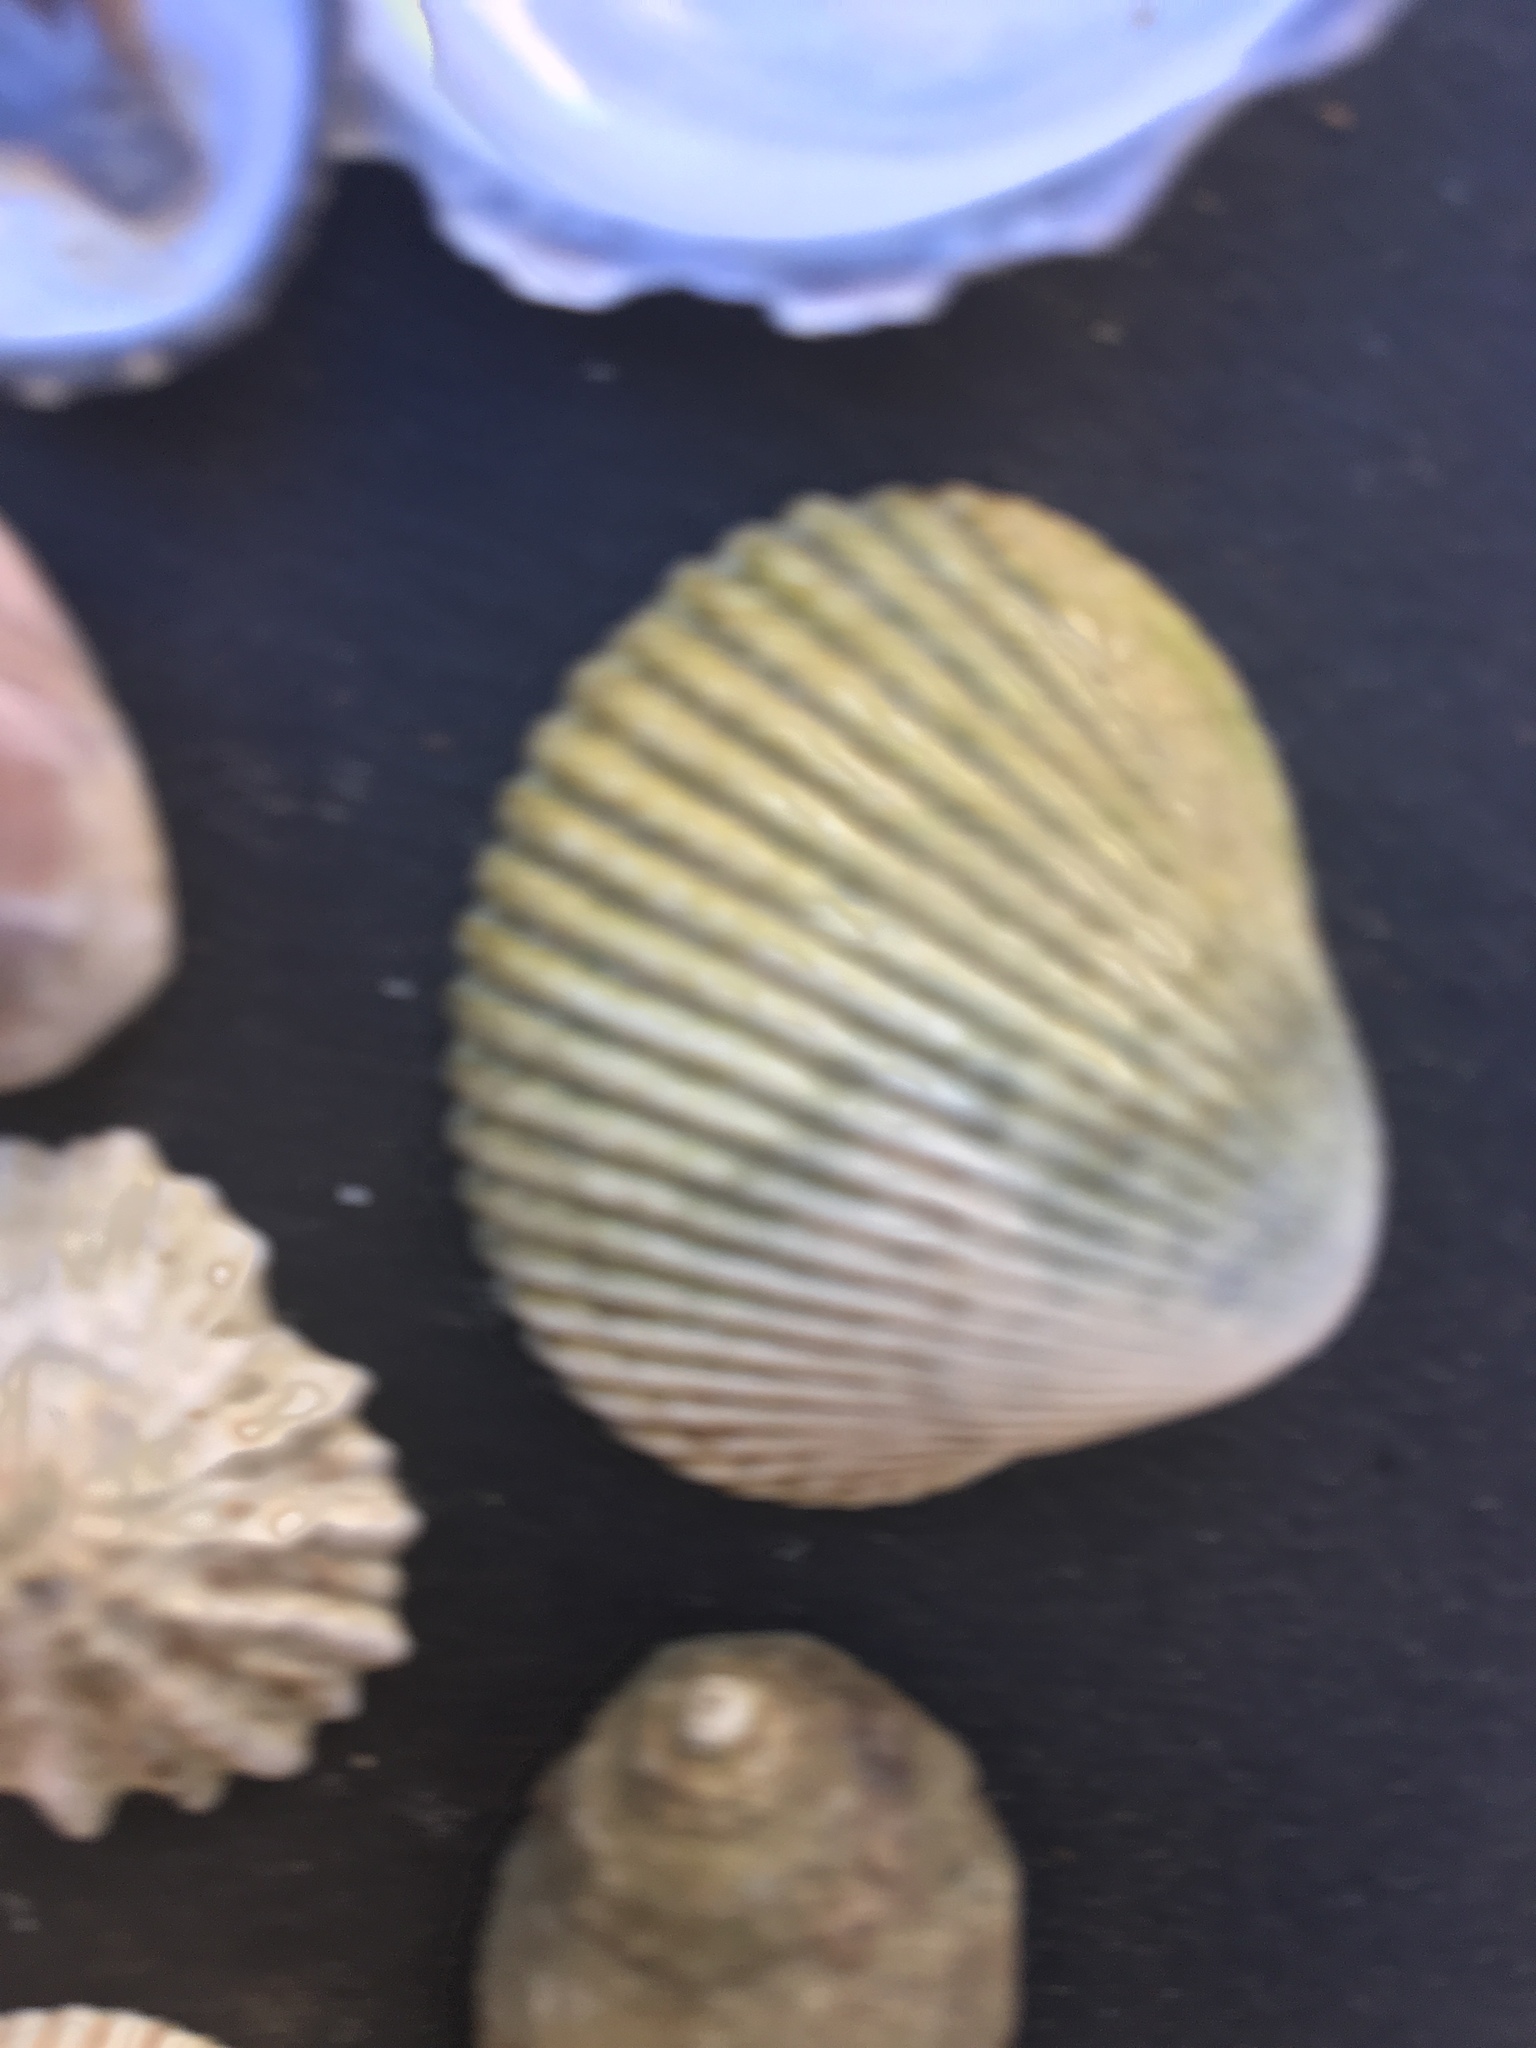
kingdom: Animalia
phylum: Mollusca
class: Bivalvia
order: Cardiida
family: Cardiidae
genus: Clinocardium
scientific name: Clinocardium nuttallii
